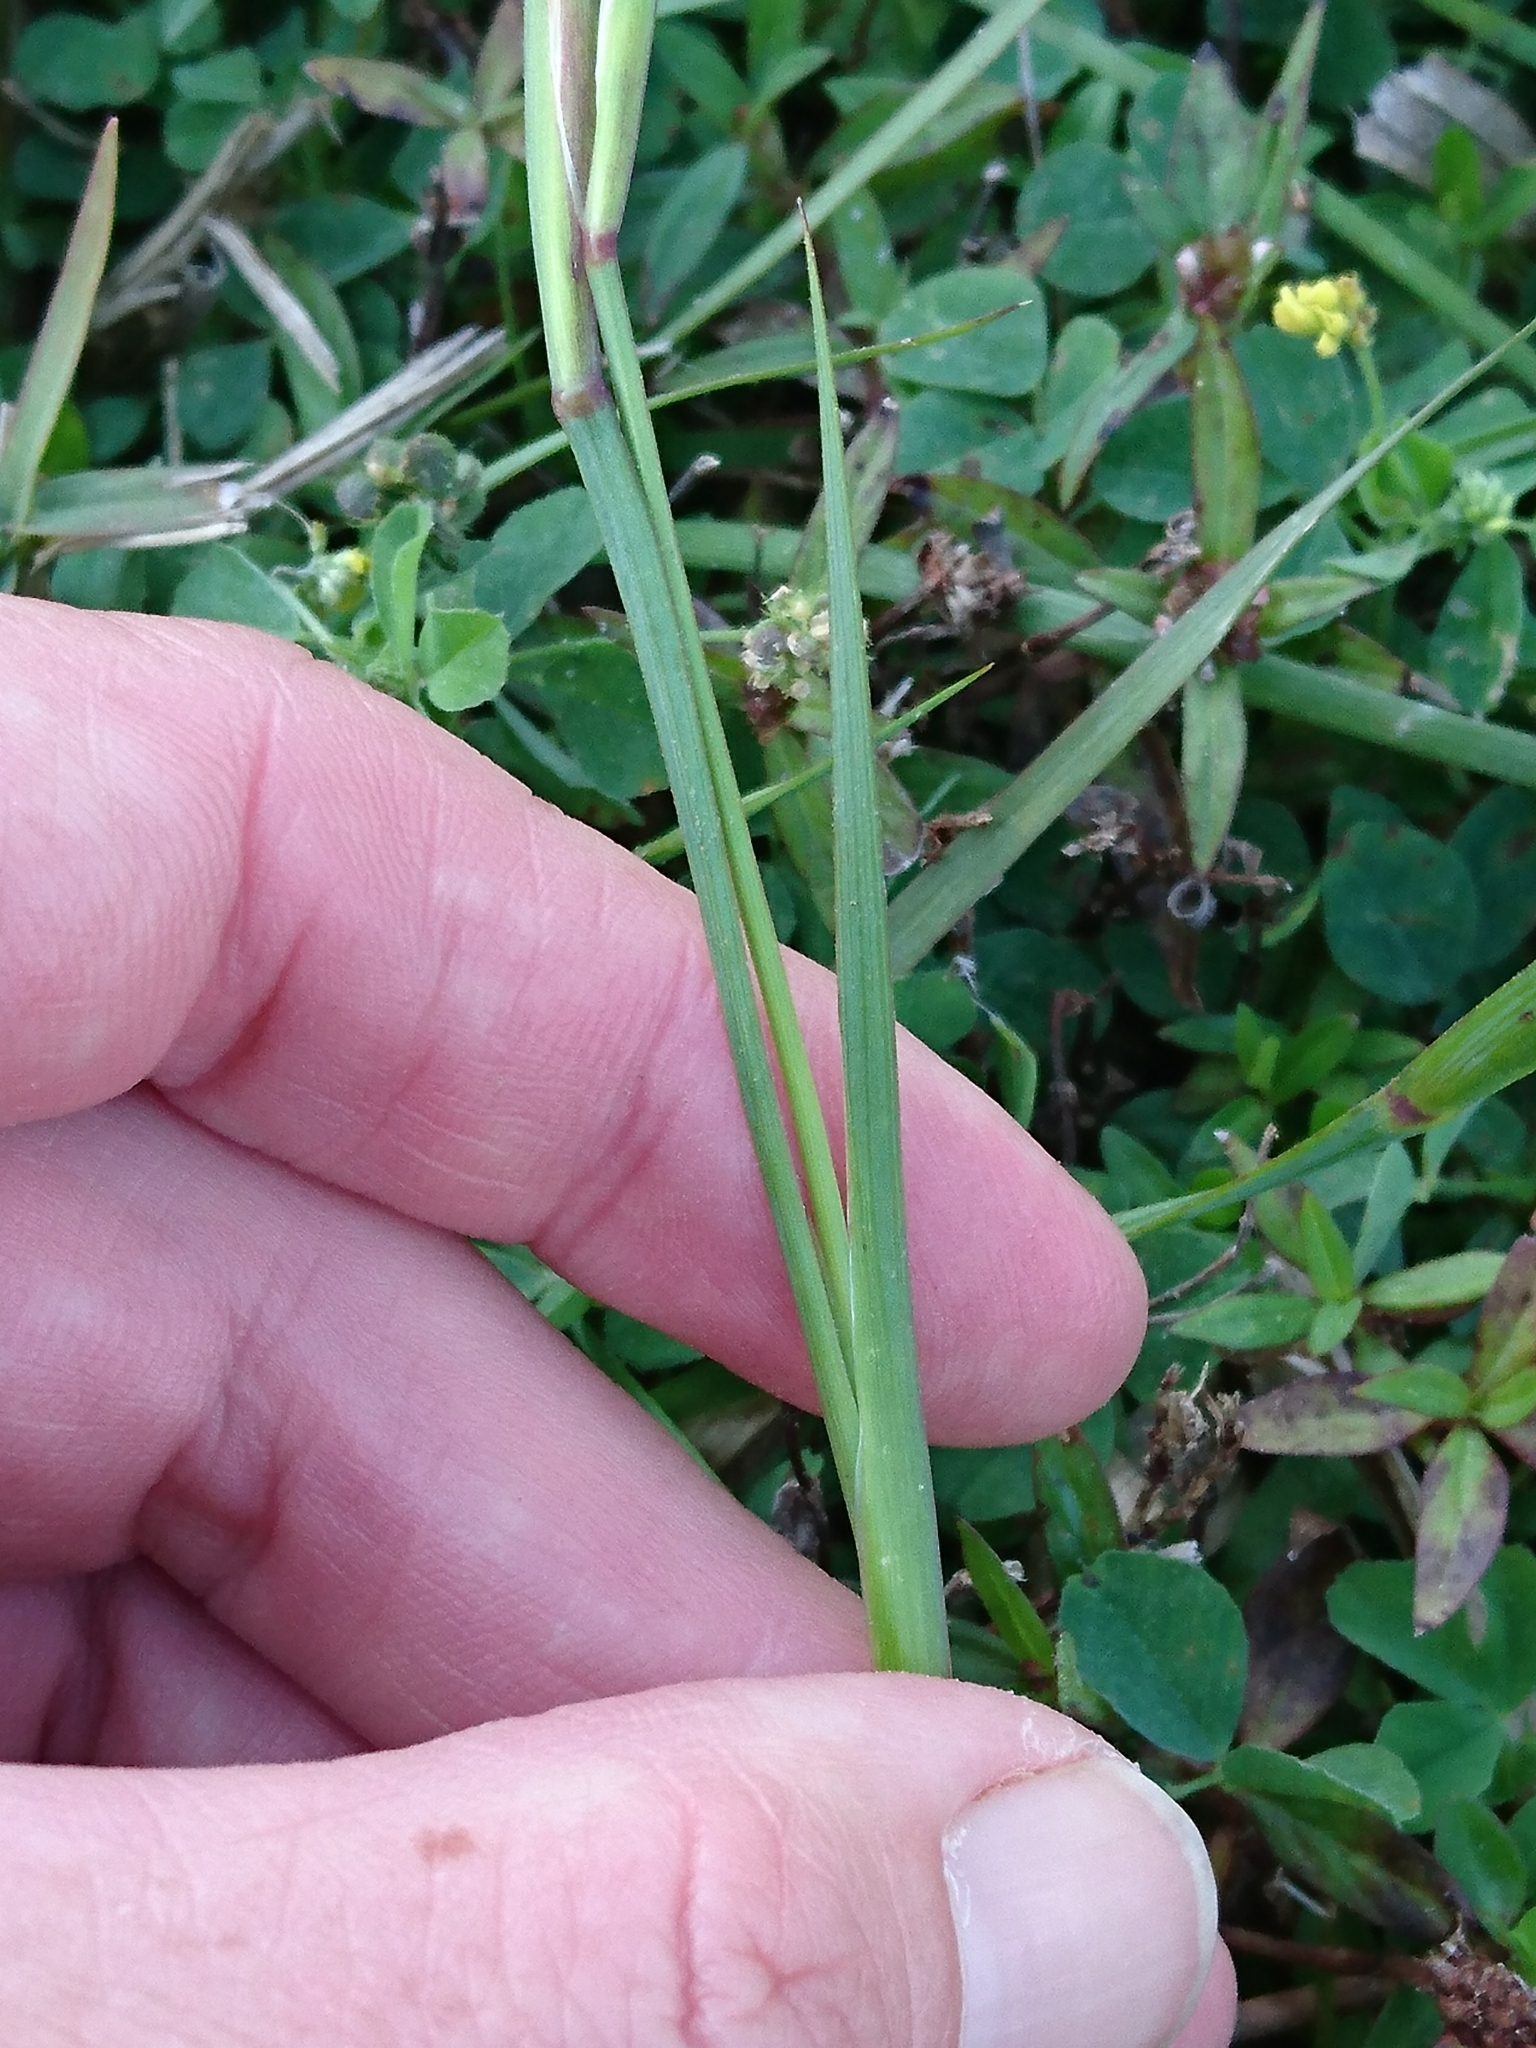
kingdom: Plantae
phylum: Tracheophyta
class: Liliopsida
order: Asparagales
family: Iridaceae
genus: Sisyrinchium
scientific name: Sisyrinchium angustifolium
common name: Narrow-leaf blue-eyed-grass
